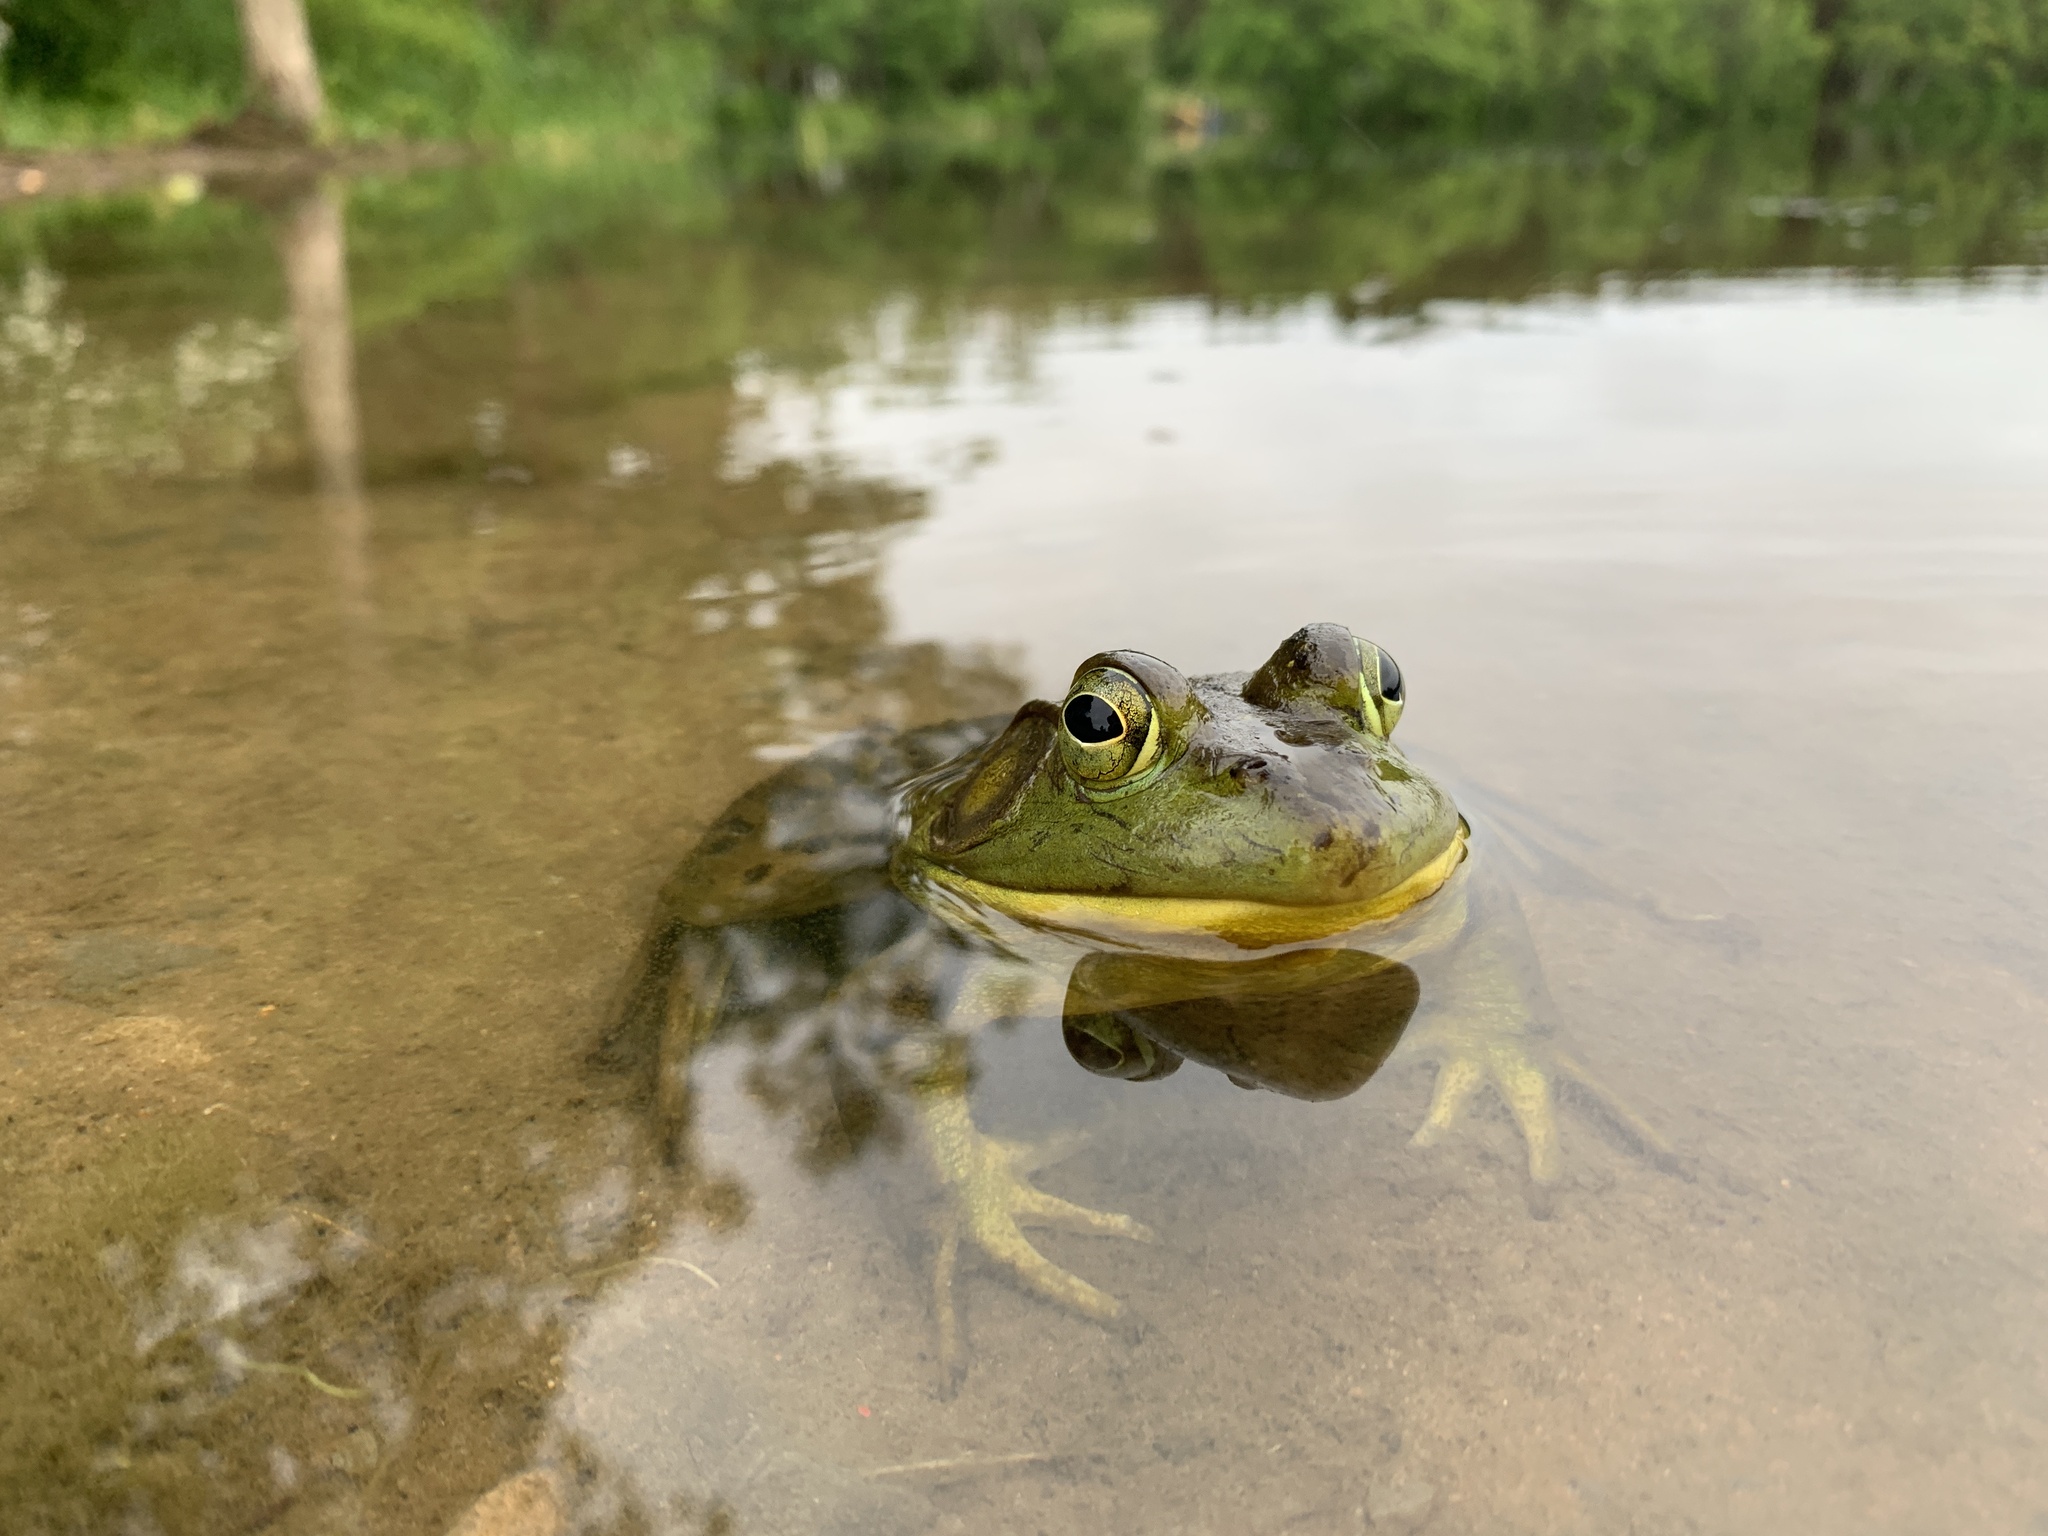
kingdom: Animalia
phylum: Chordata
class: Amphibia
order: Anura
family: Ranidae
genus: Lithobates
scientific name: Lithobates catesbeianus
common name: American bullfrog
